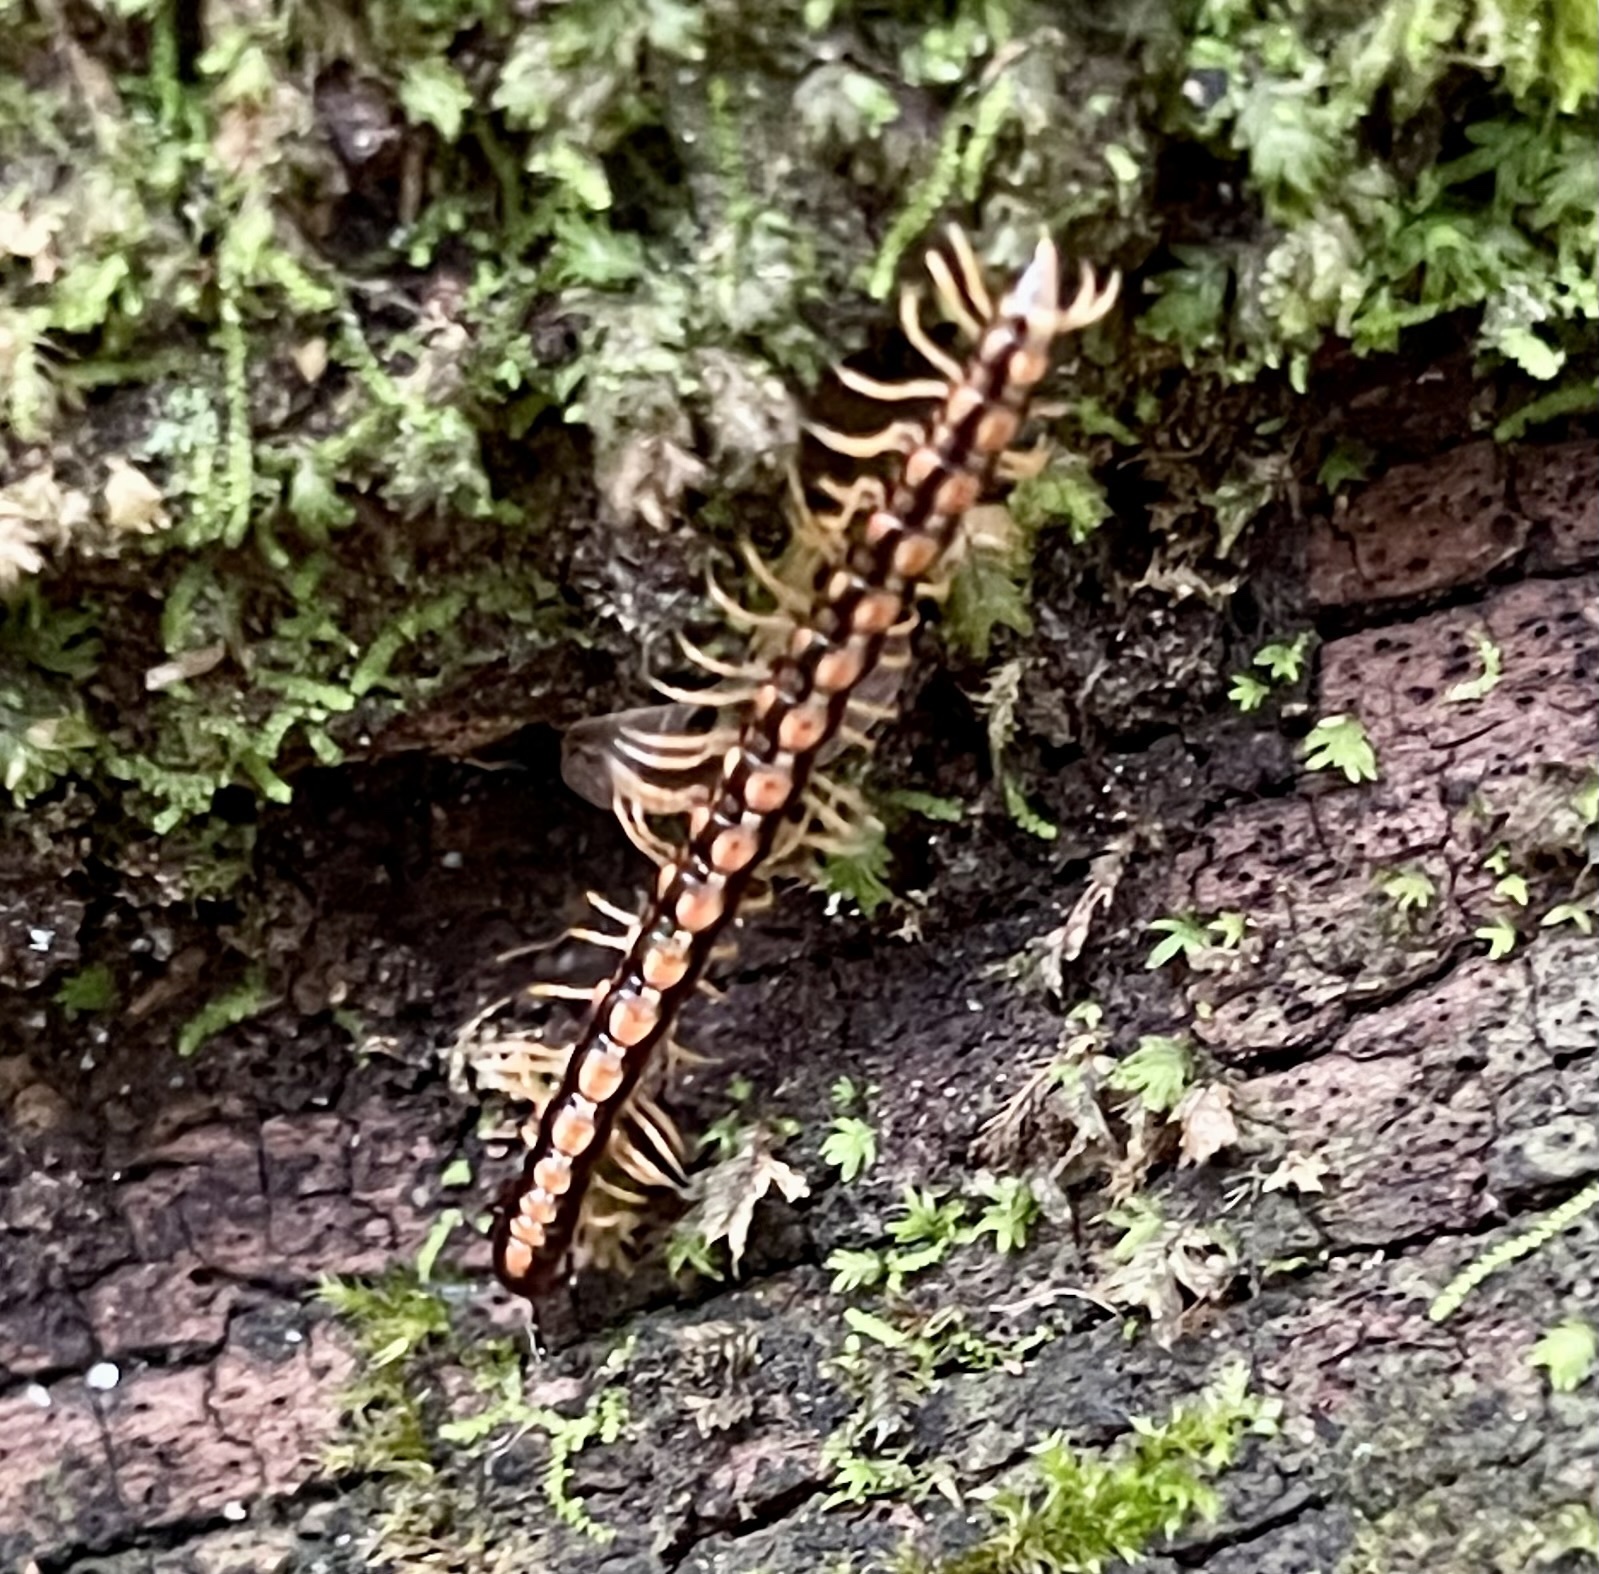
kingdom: Animalia
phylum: Arthropoda
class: Diplopoda
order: Polydesmida
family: Paradoxosomatidae
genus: Helicorthomorpha
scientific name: Helicorthomorpha holstii
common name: Millipede
